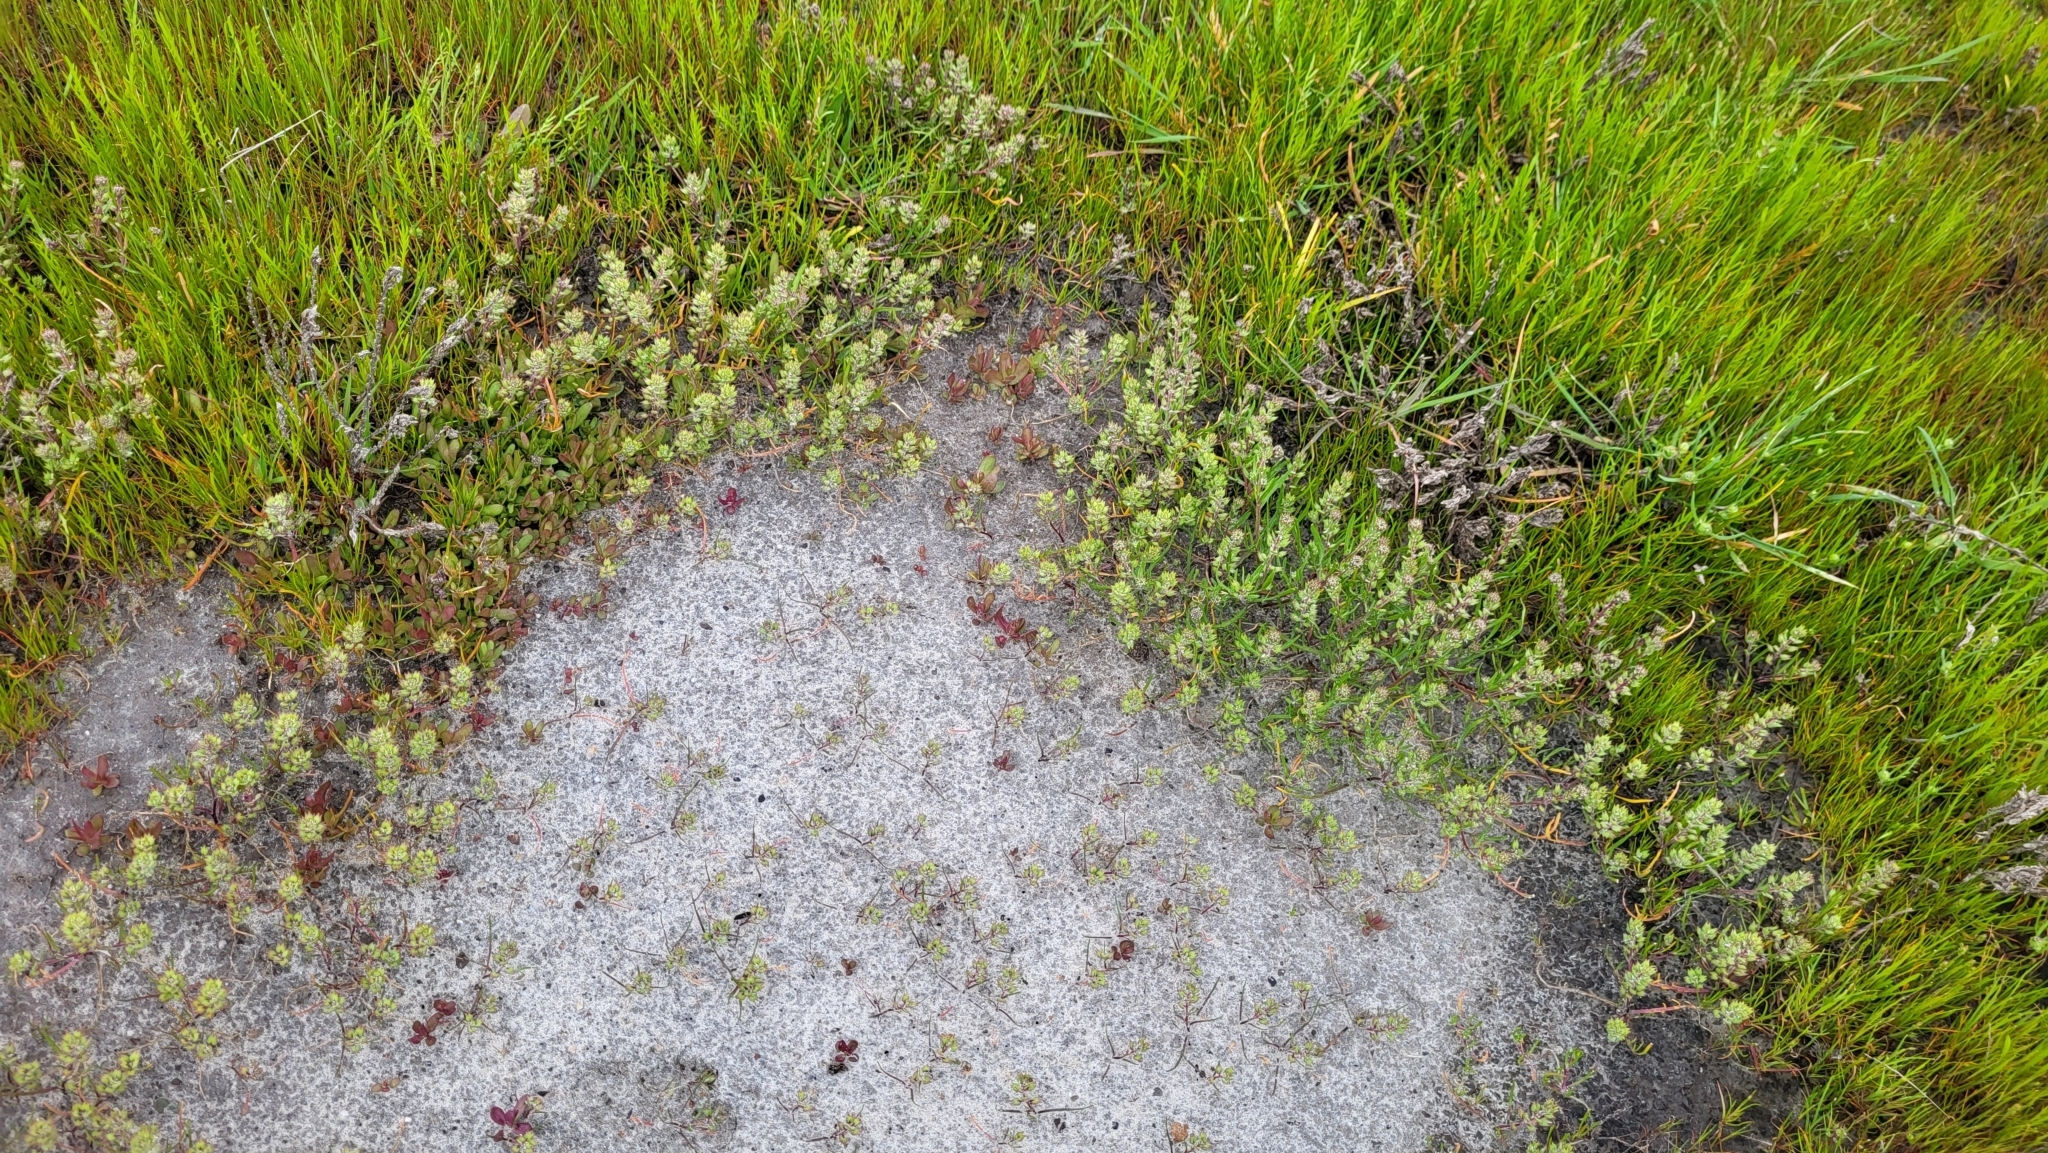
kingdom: Plantae
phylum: Tracheophyta
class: Magnoliopsida
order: Brassicales
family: Brassicaceae
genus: Lepidium
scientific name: Lepidium acutidens
